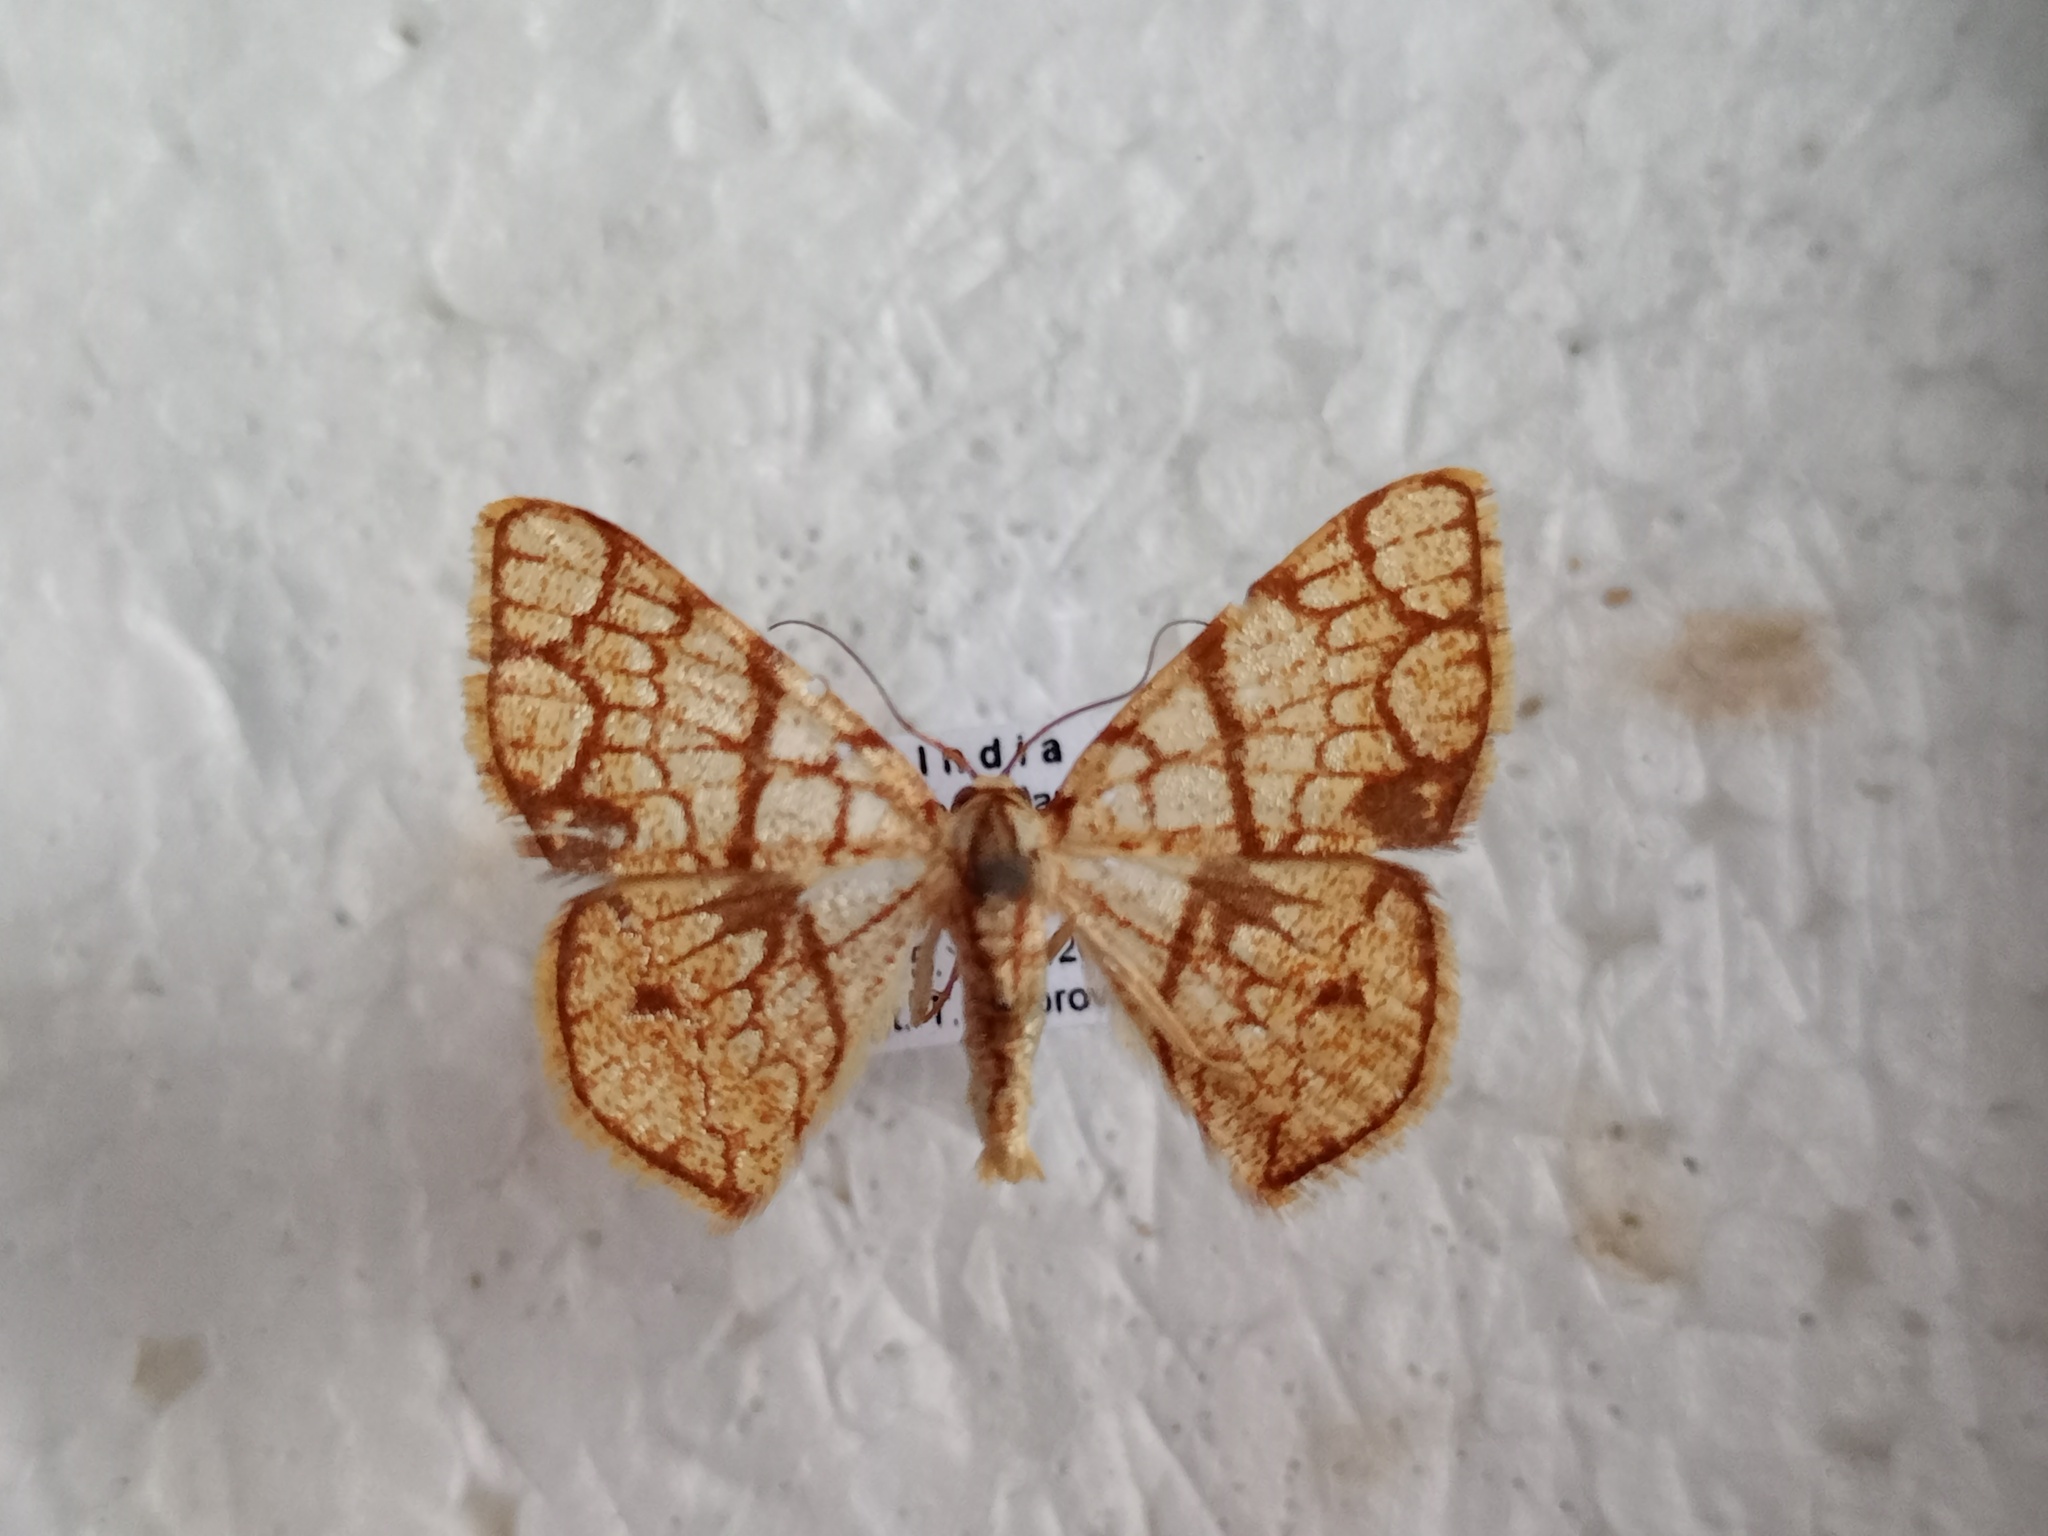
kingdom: Animalia
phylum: Arthropoda
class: Insecta
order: Lepidoptera
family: Geometridae
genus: Heterostegane
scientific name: Heterostegane subtessellata
